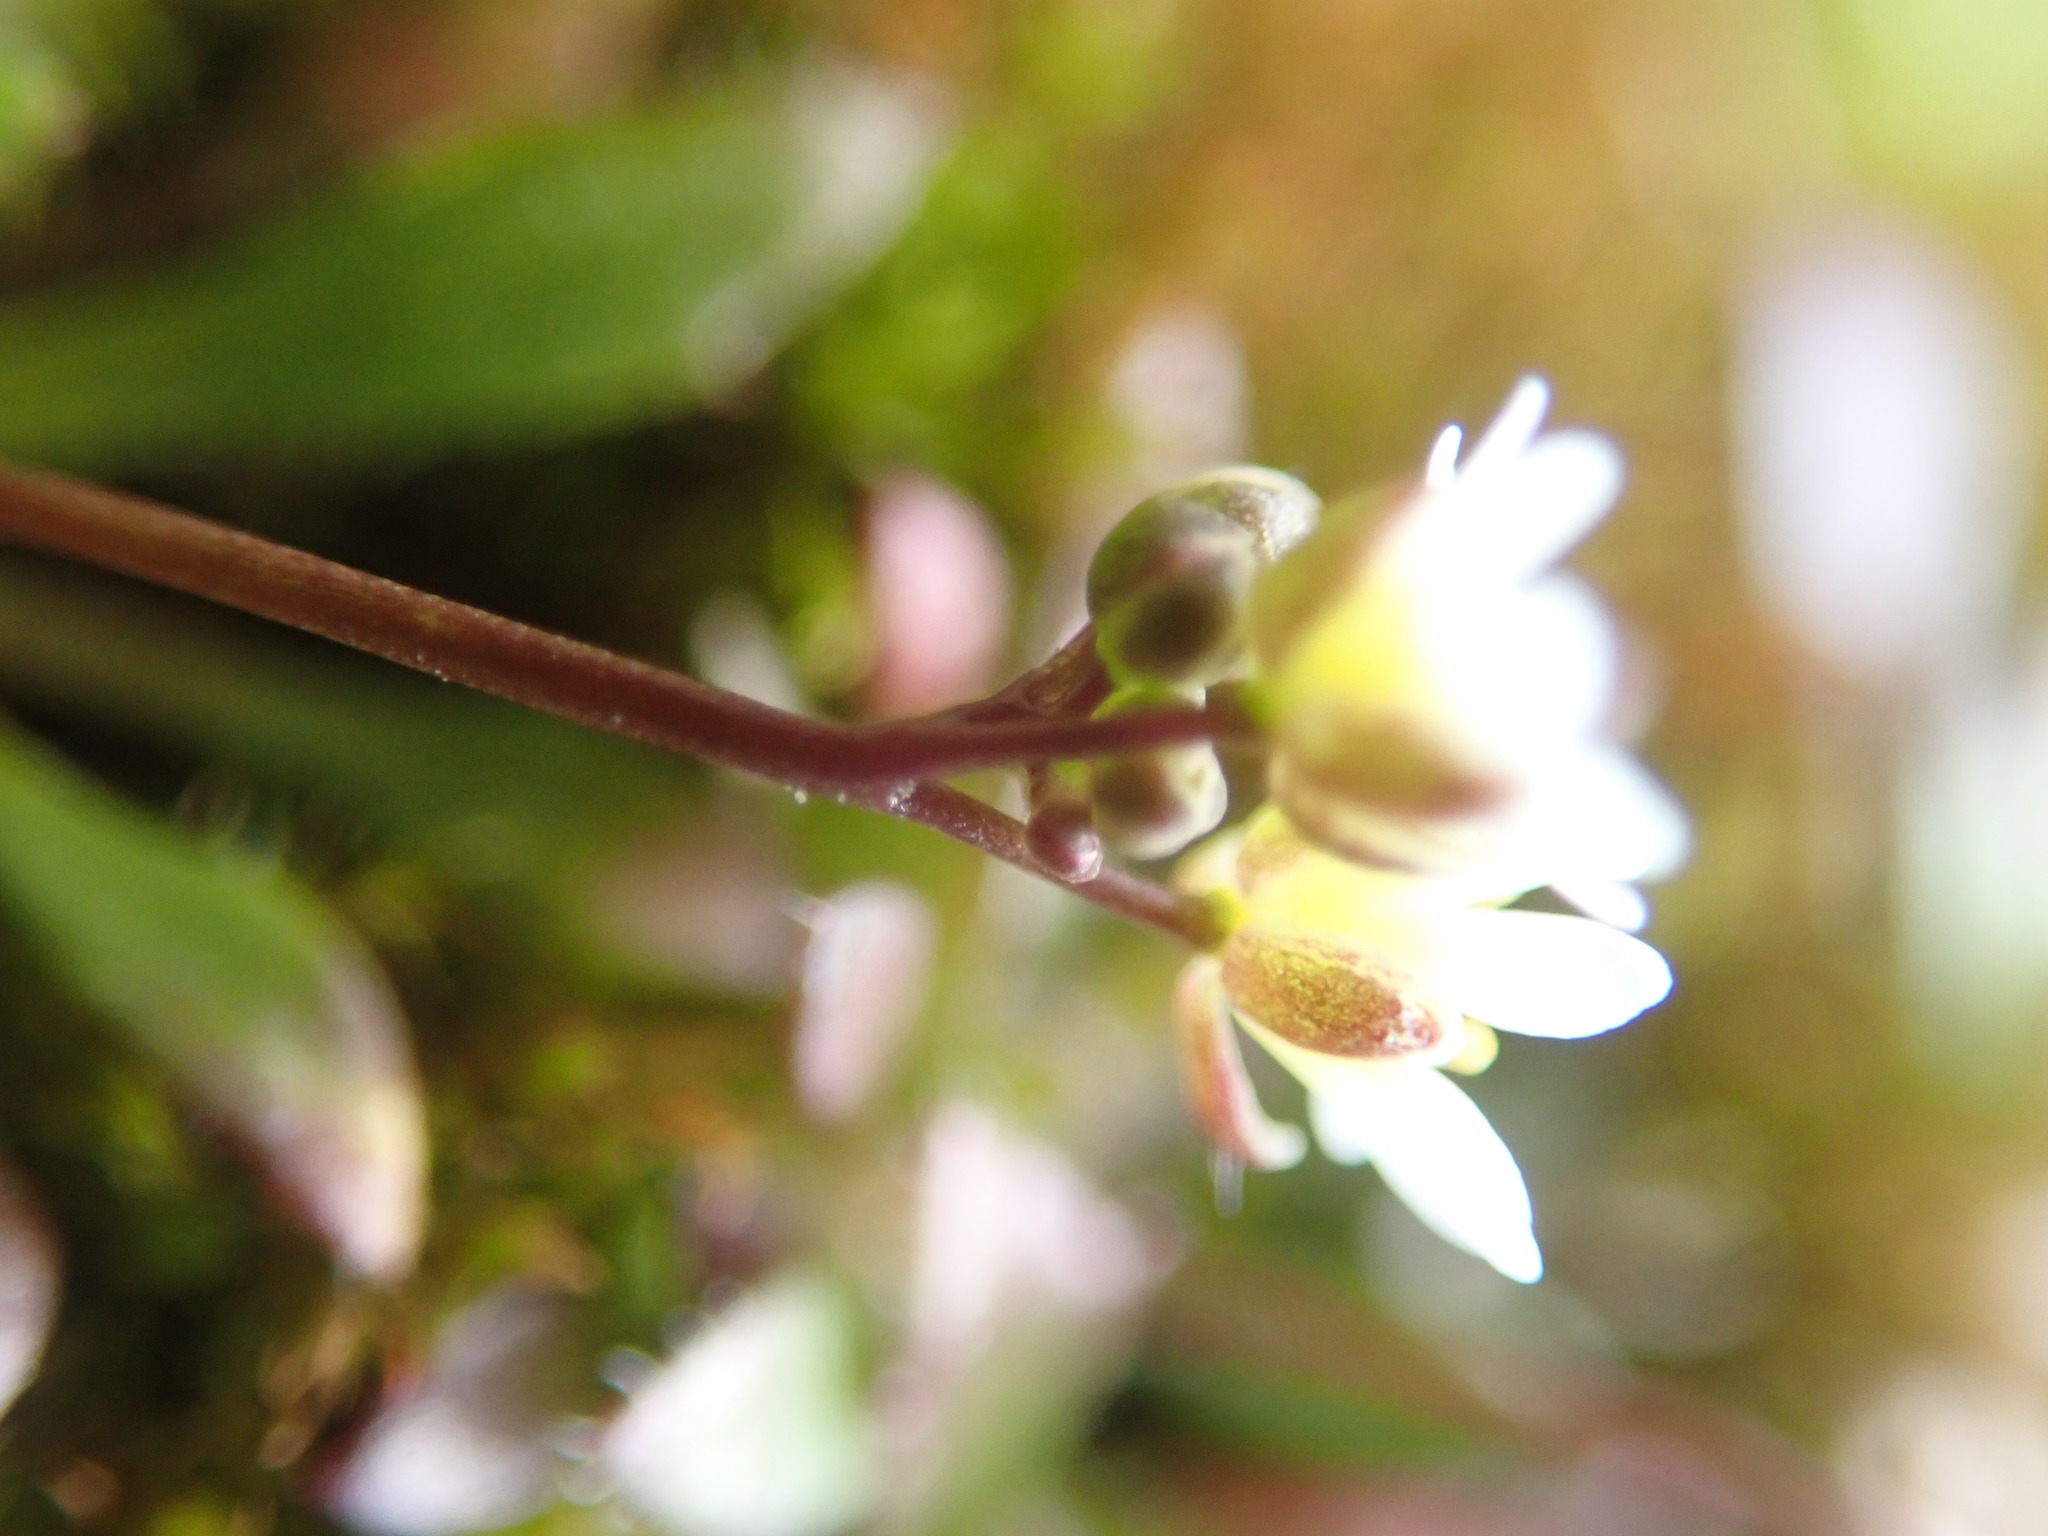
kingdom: Plantae
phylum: Tracheophyta
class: Magnoliopsida
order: Brassicales
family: Brassicaceae
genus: Draba
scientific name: Draba verna
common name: Spring draba
